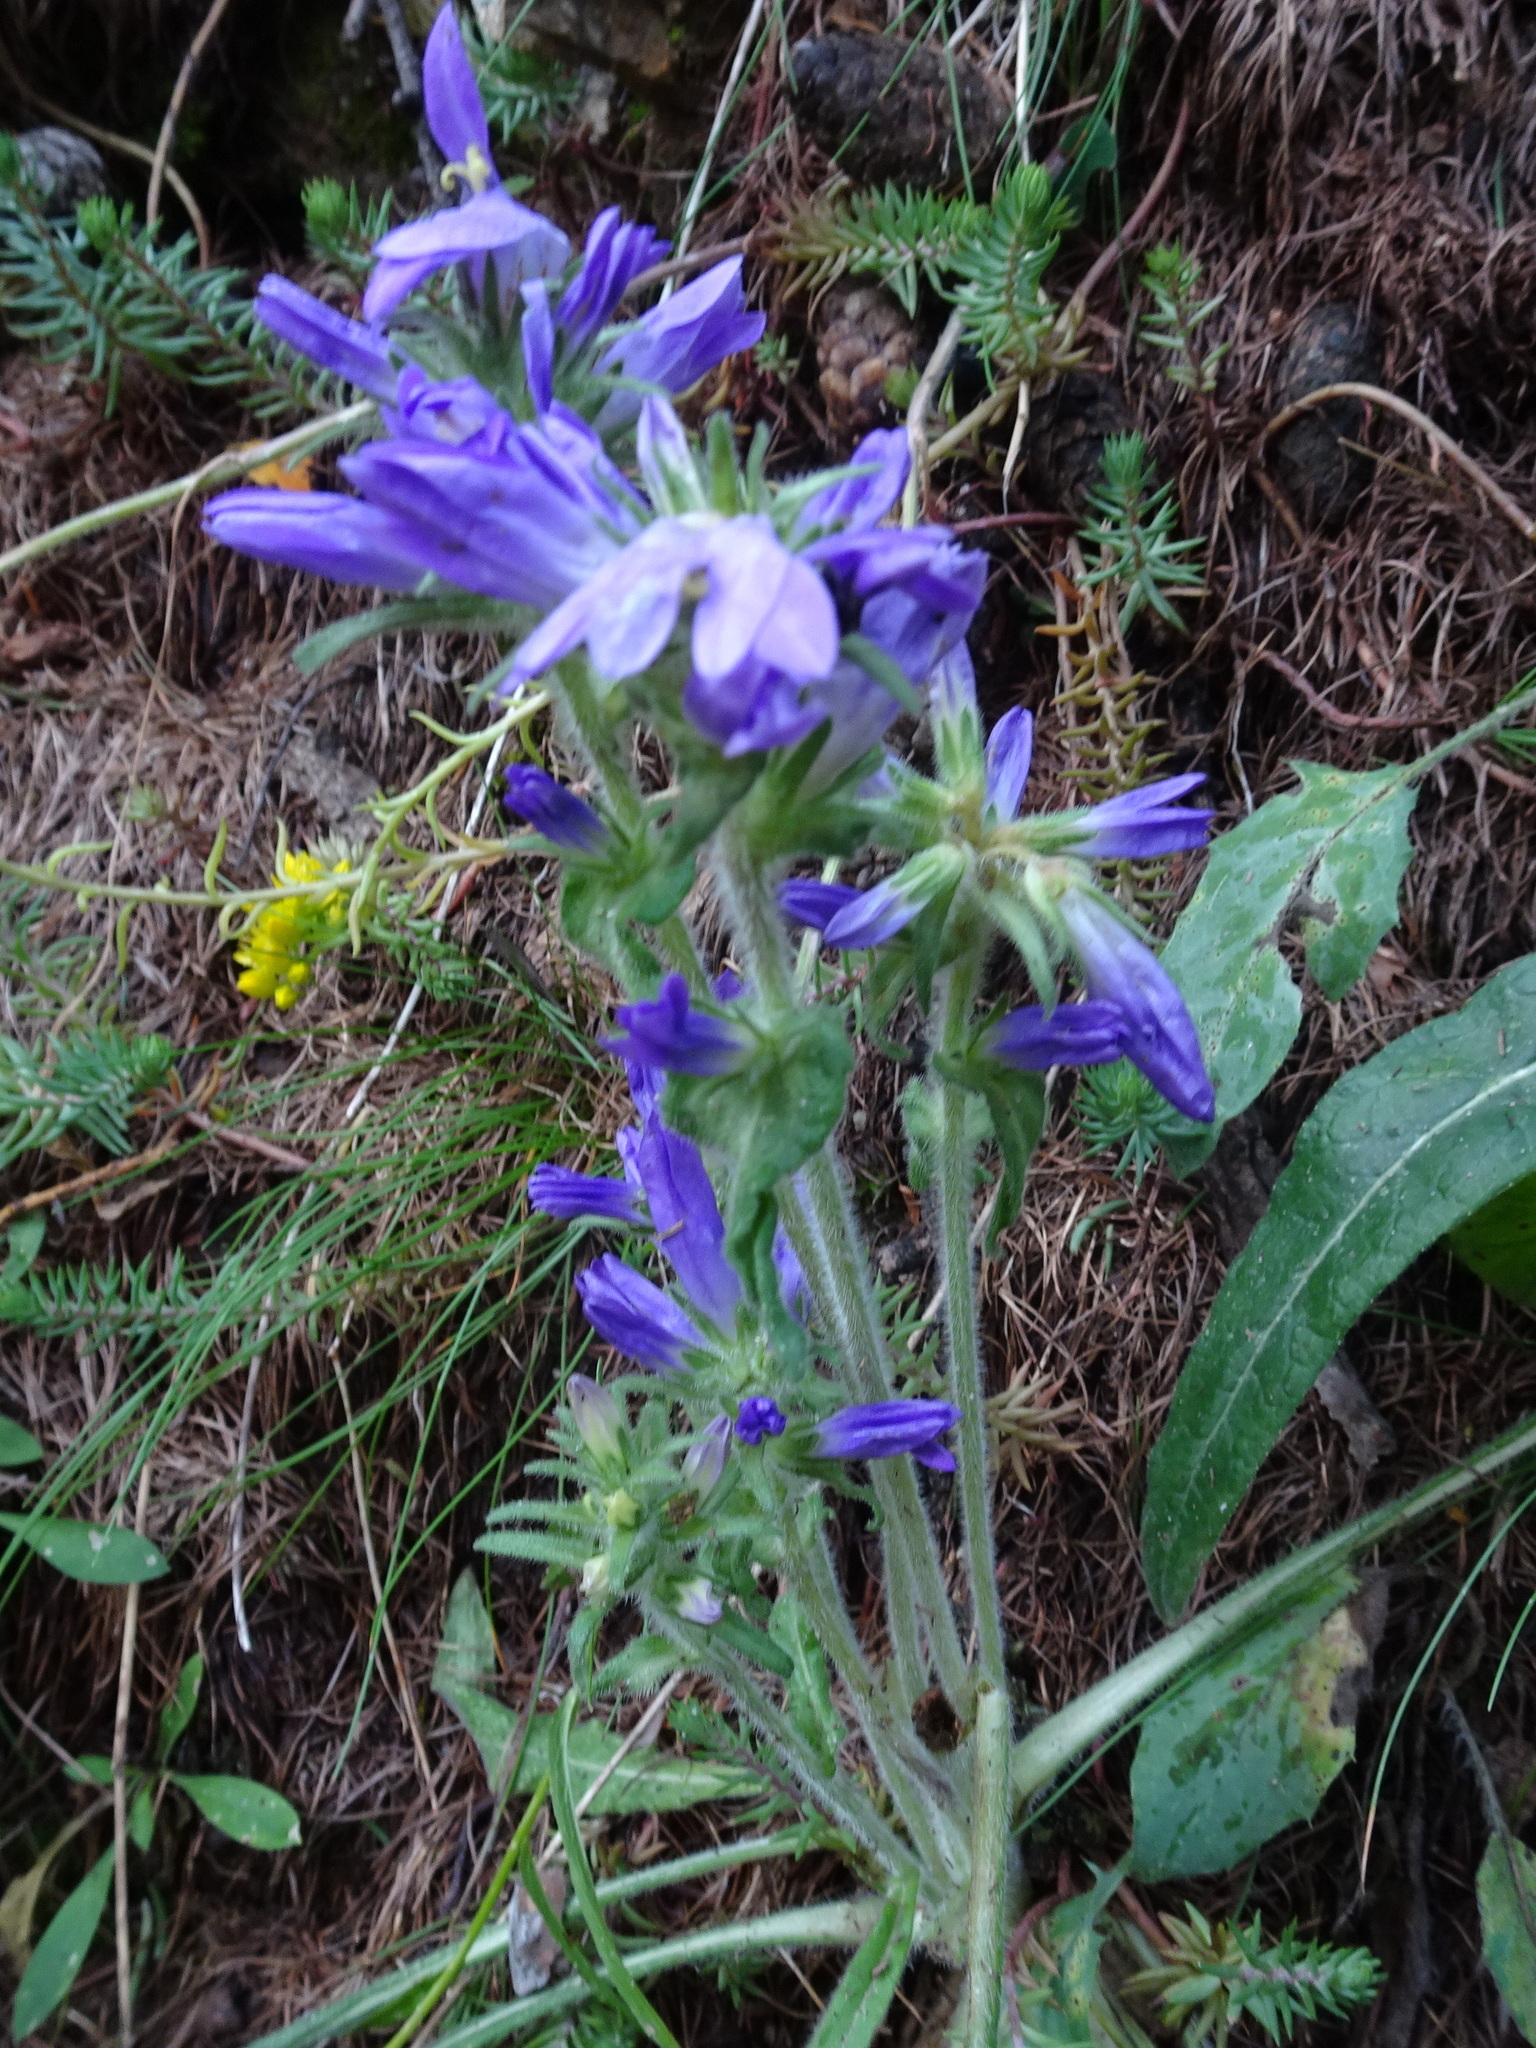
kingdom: Plantae
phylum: Tracheophyta
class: Magnoliopsida
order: Asterales
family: Campanulaceae
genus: Campanula
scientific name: Campanula glomerata
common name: Clustered bellflower
